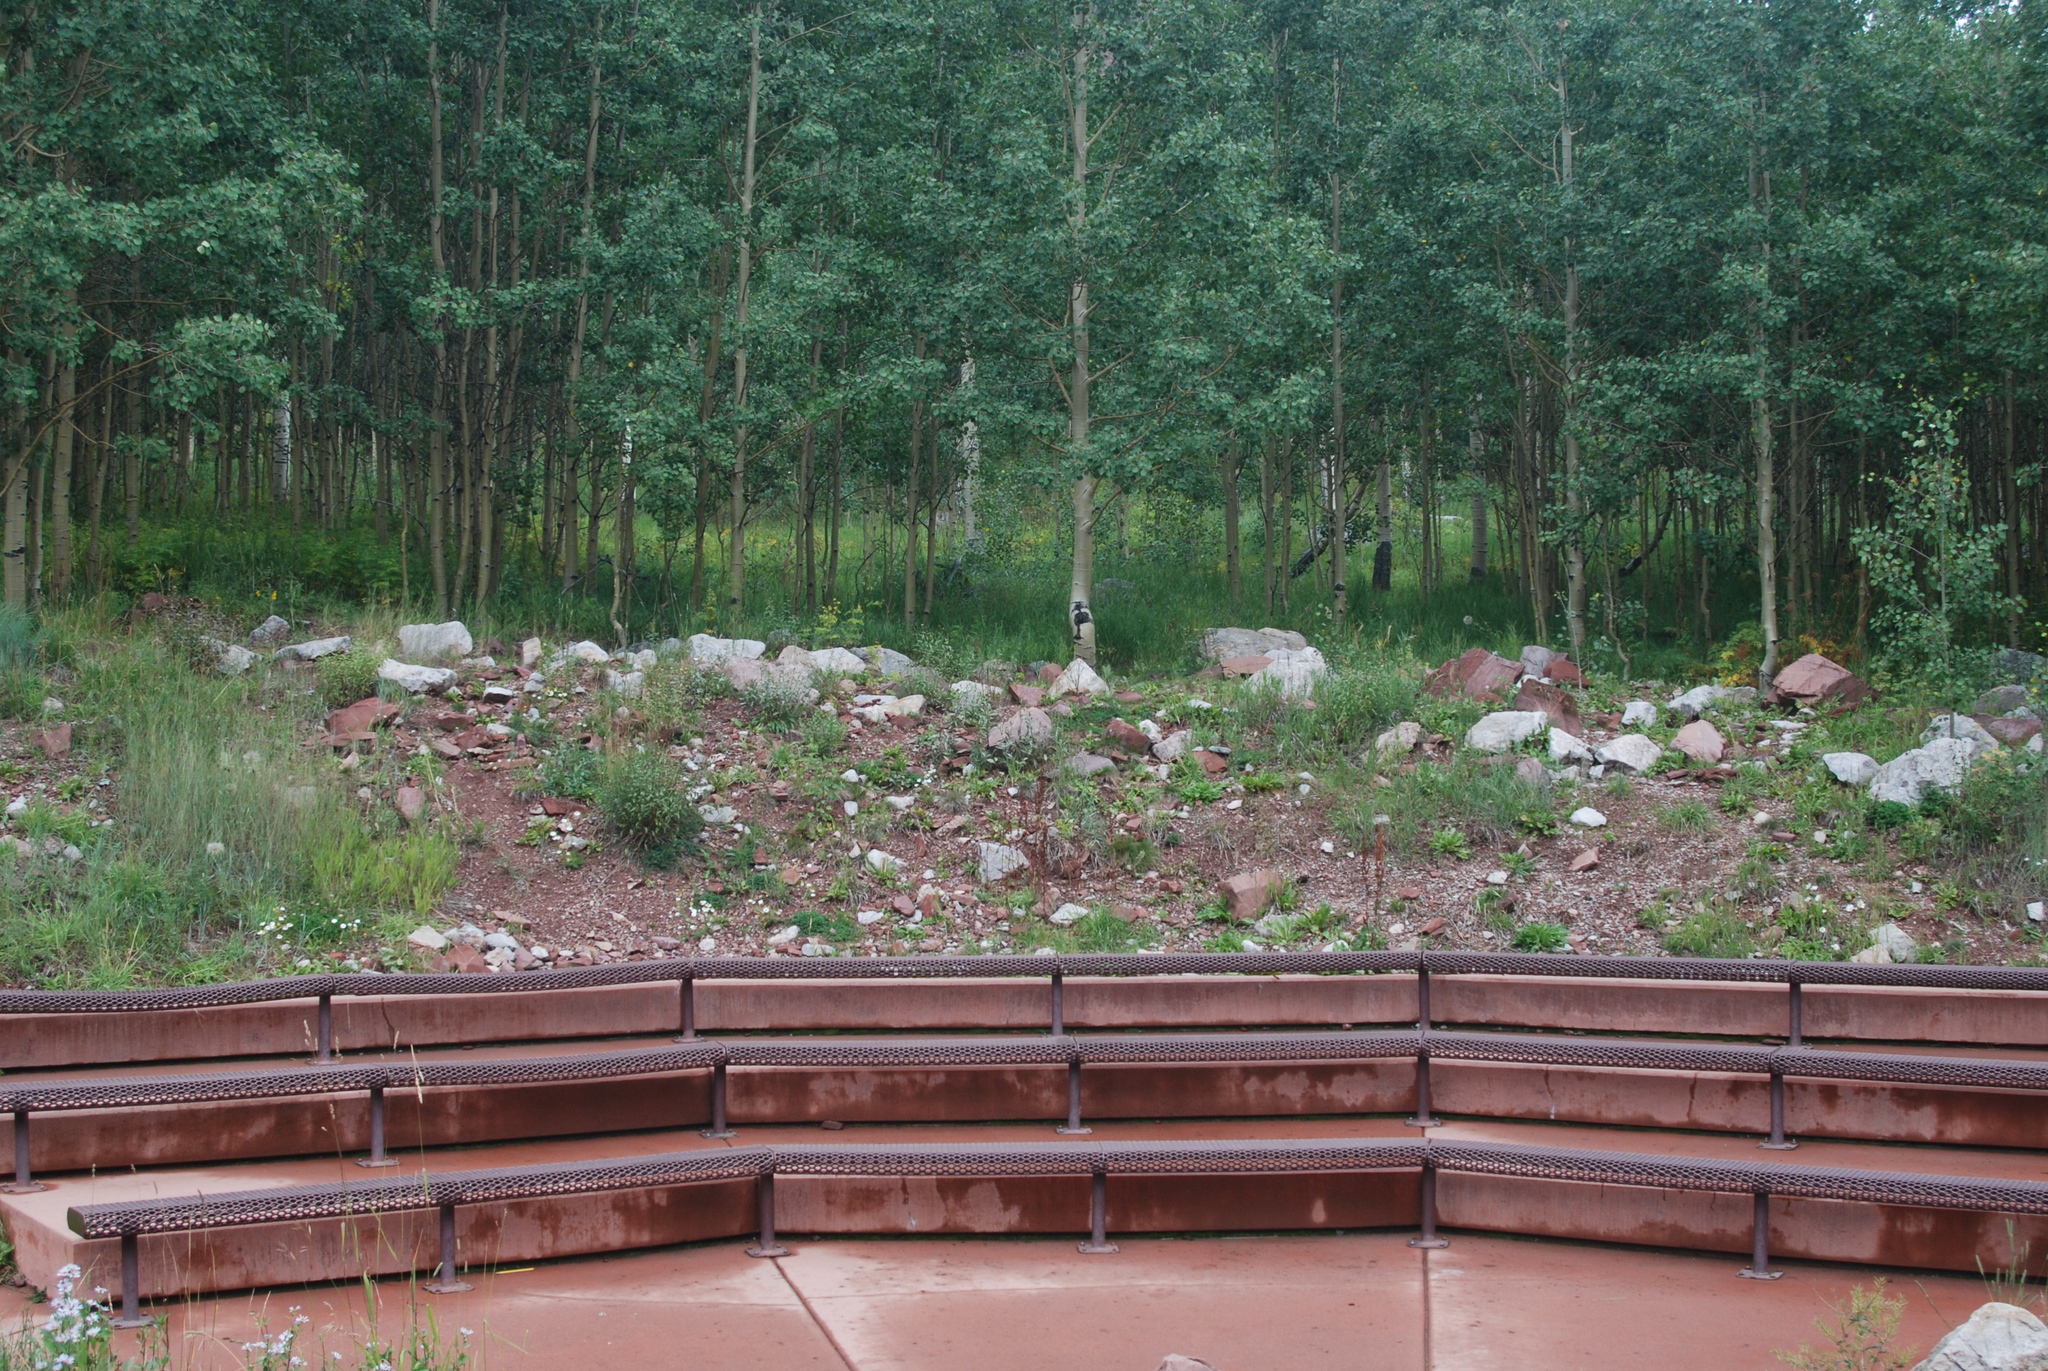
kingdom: Plantae
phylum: Tracheophyta
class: Magnoliopsida
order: Malpighiales
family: Salicaceae
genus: Populus
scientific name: Populus tremuloides
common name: Quaking aspen
